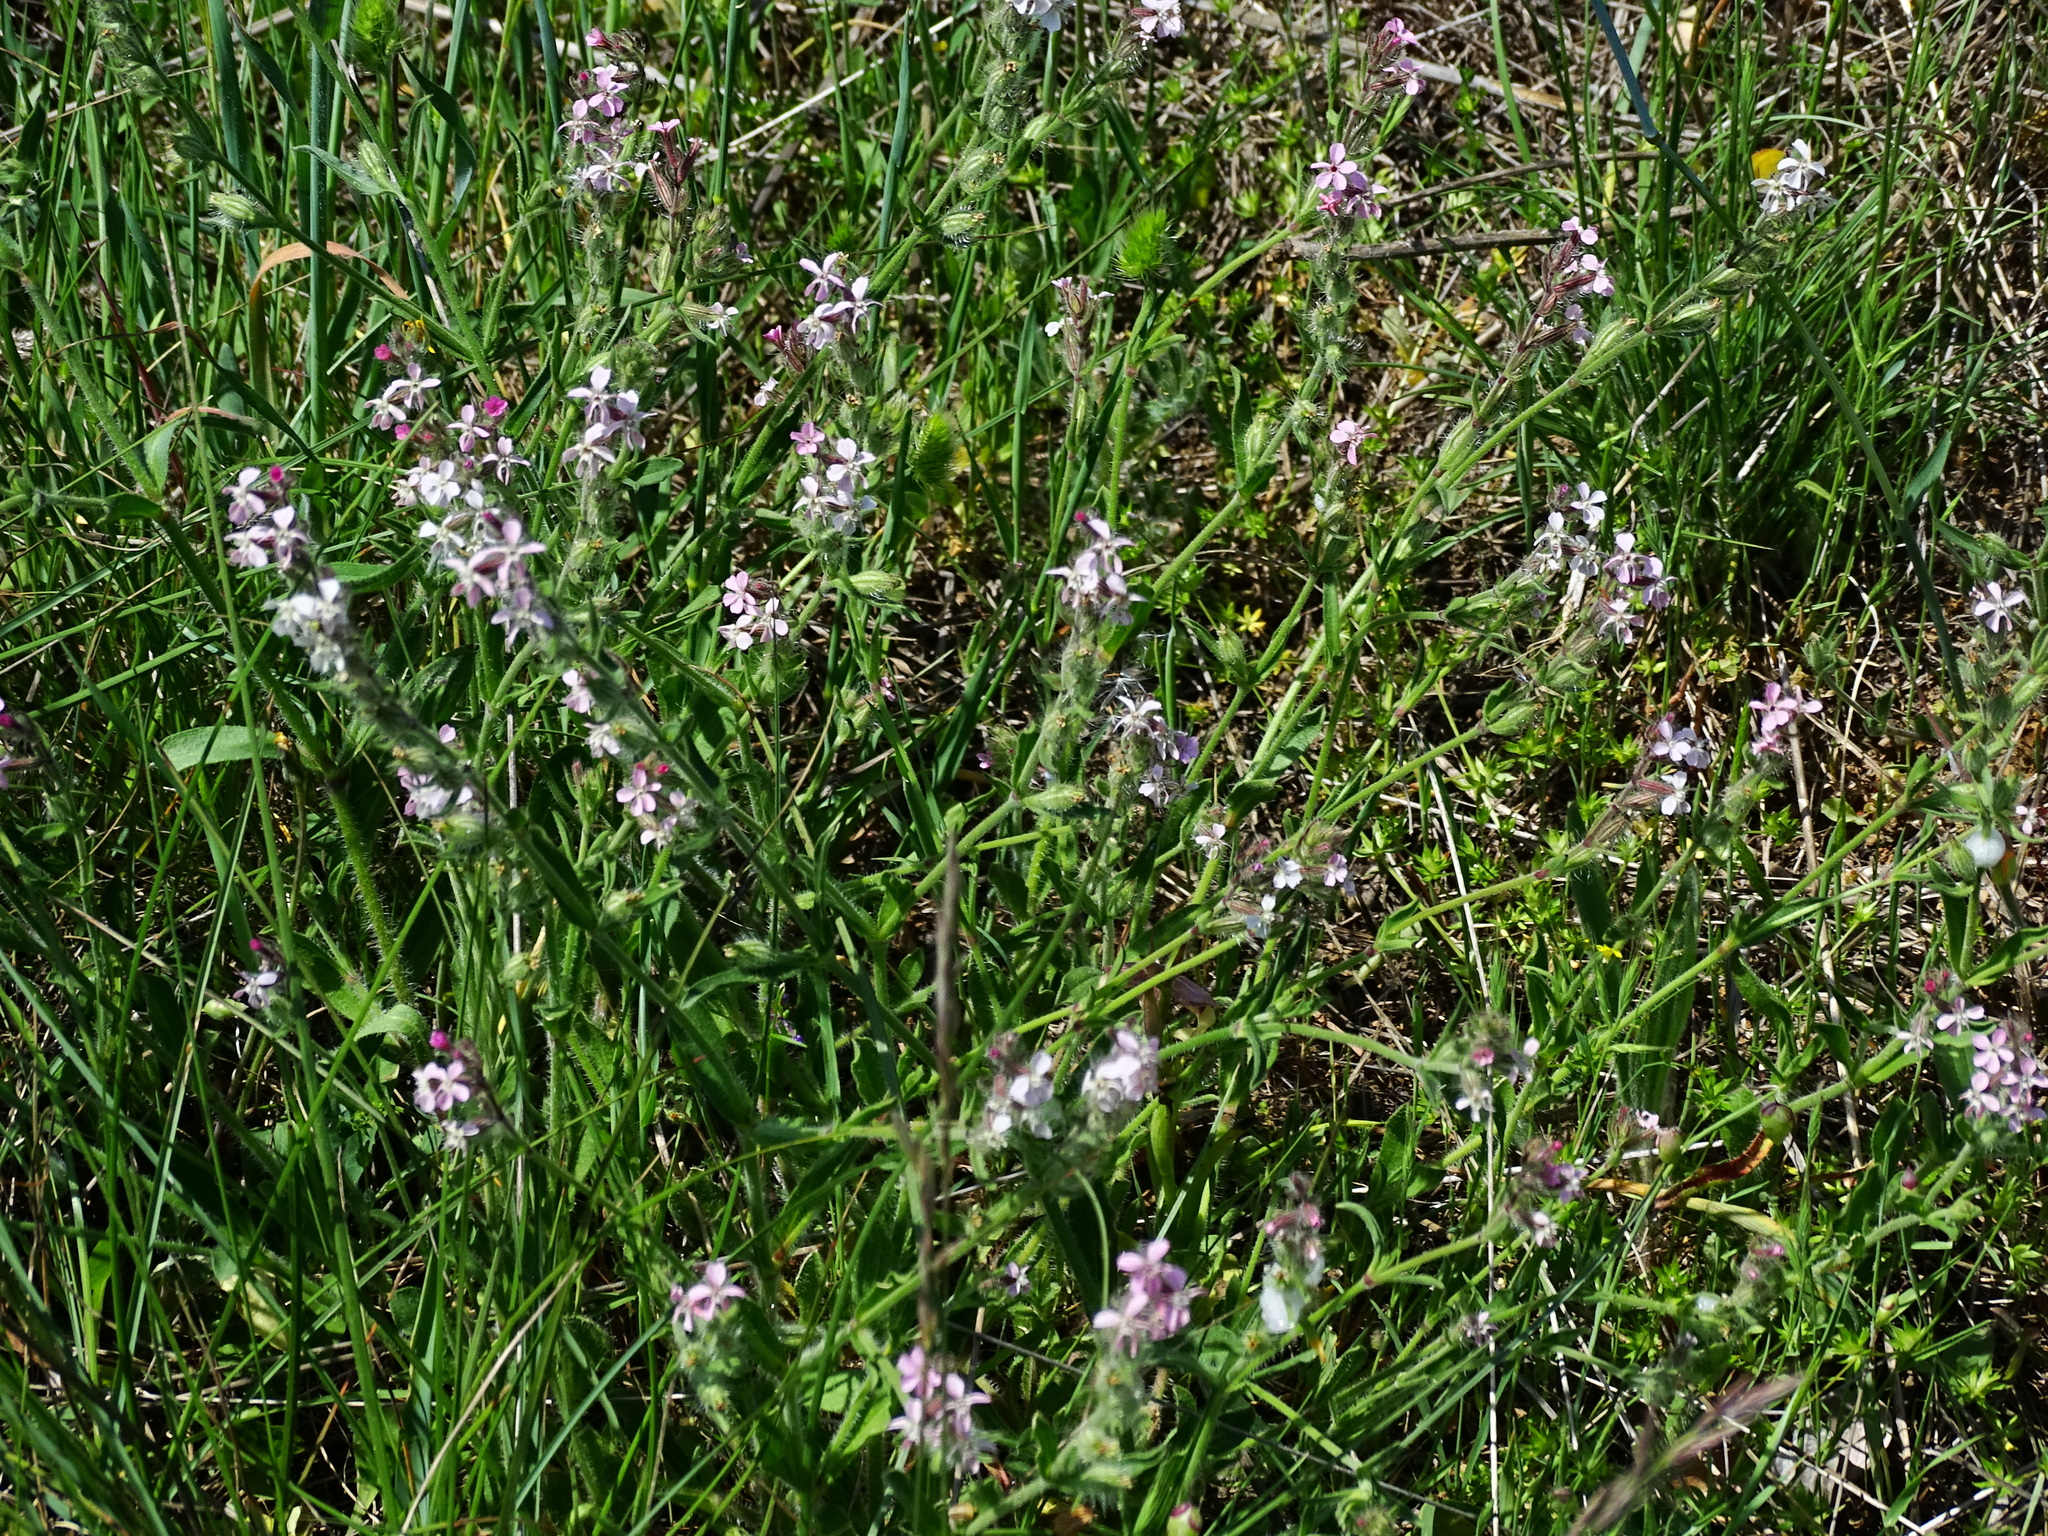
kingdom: Plantae
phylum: Tracheophyta
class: Magnoliopsida
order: Caryophyllales
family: Caryophyllaceae
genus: Silene
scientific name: Silene gallica
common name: Small-flowered catchfly
